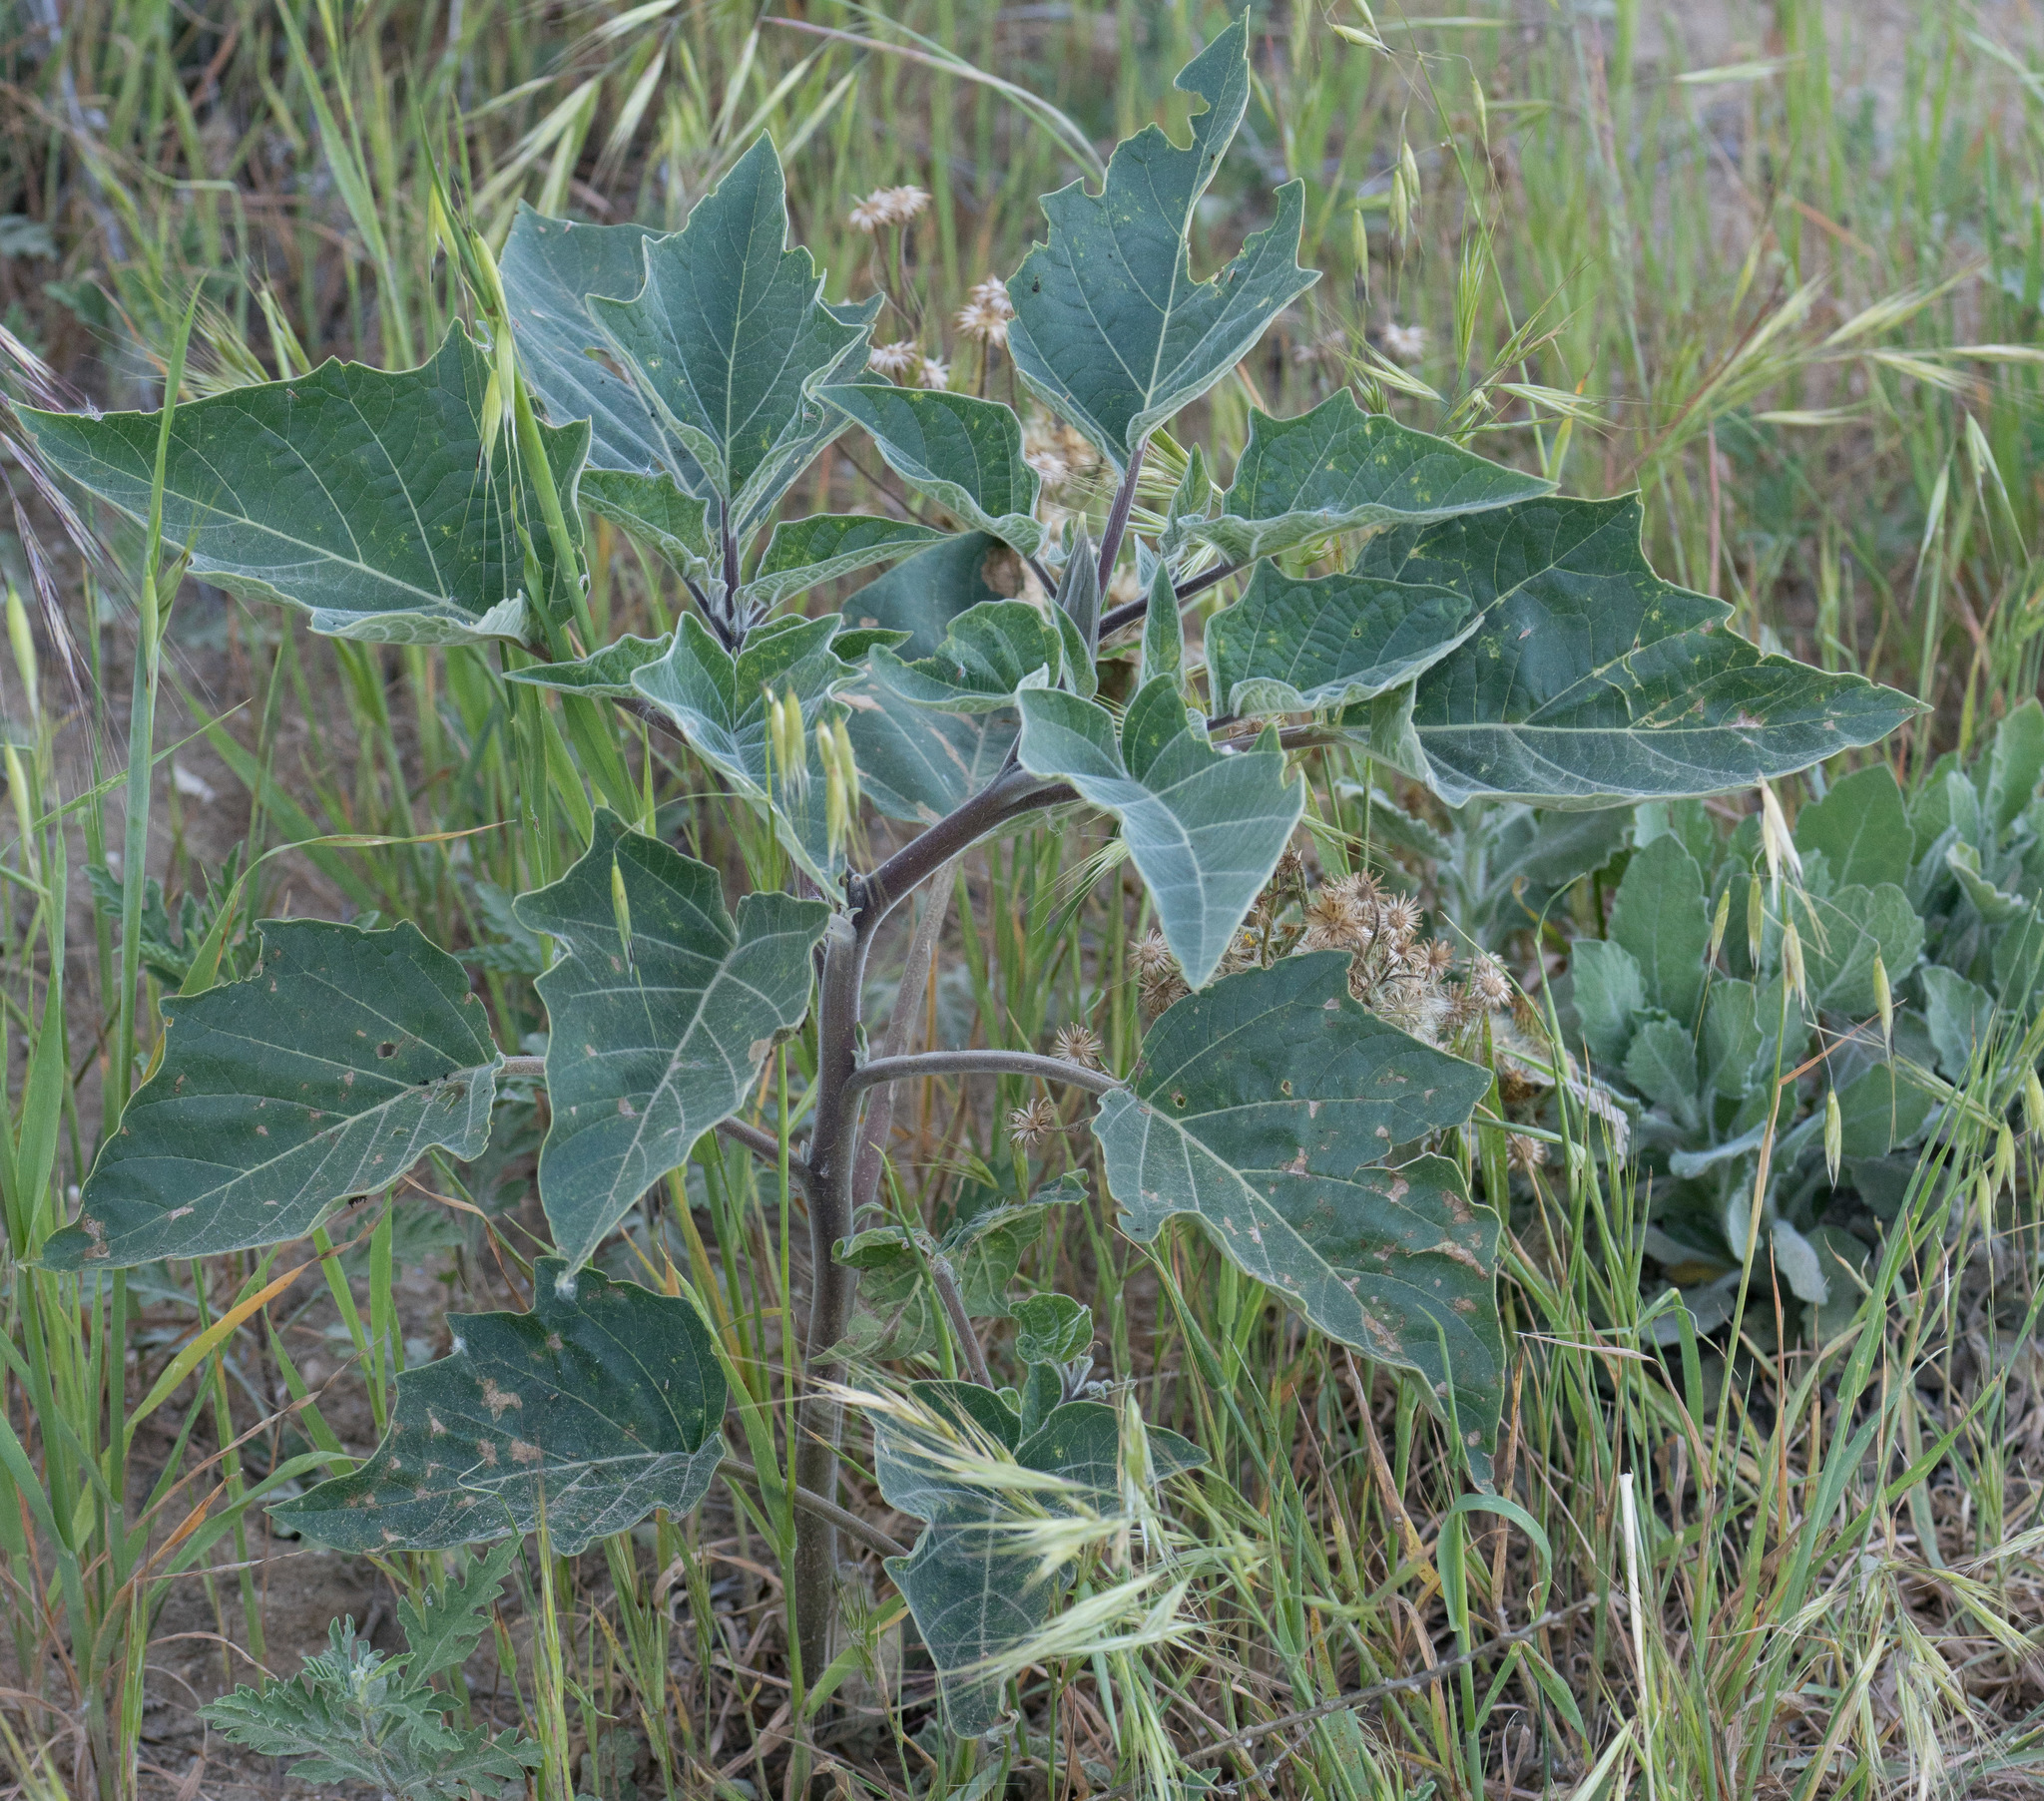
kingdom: Plantae
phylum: Tracheophyta
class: Magnoliopsida
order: Solanales
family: Solanaceae
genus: Datura
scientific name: Datura wrightii
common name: Sacred thorn-apple
